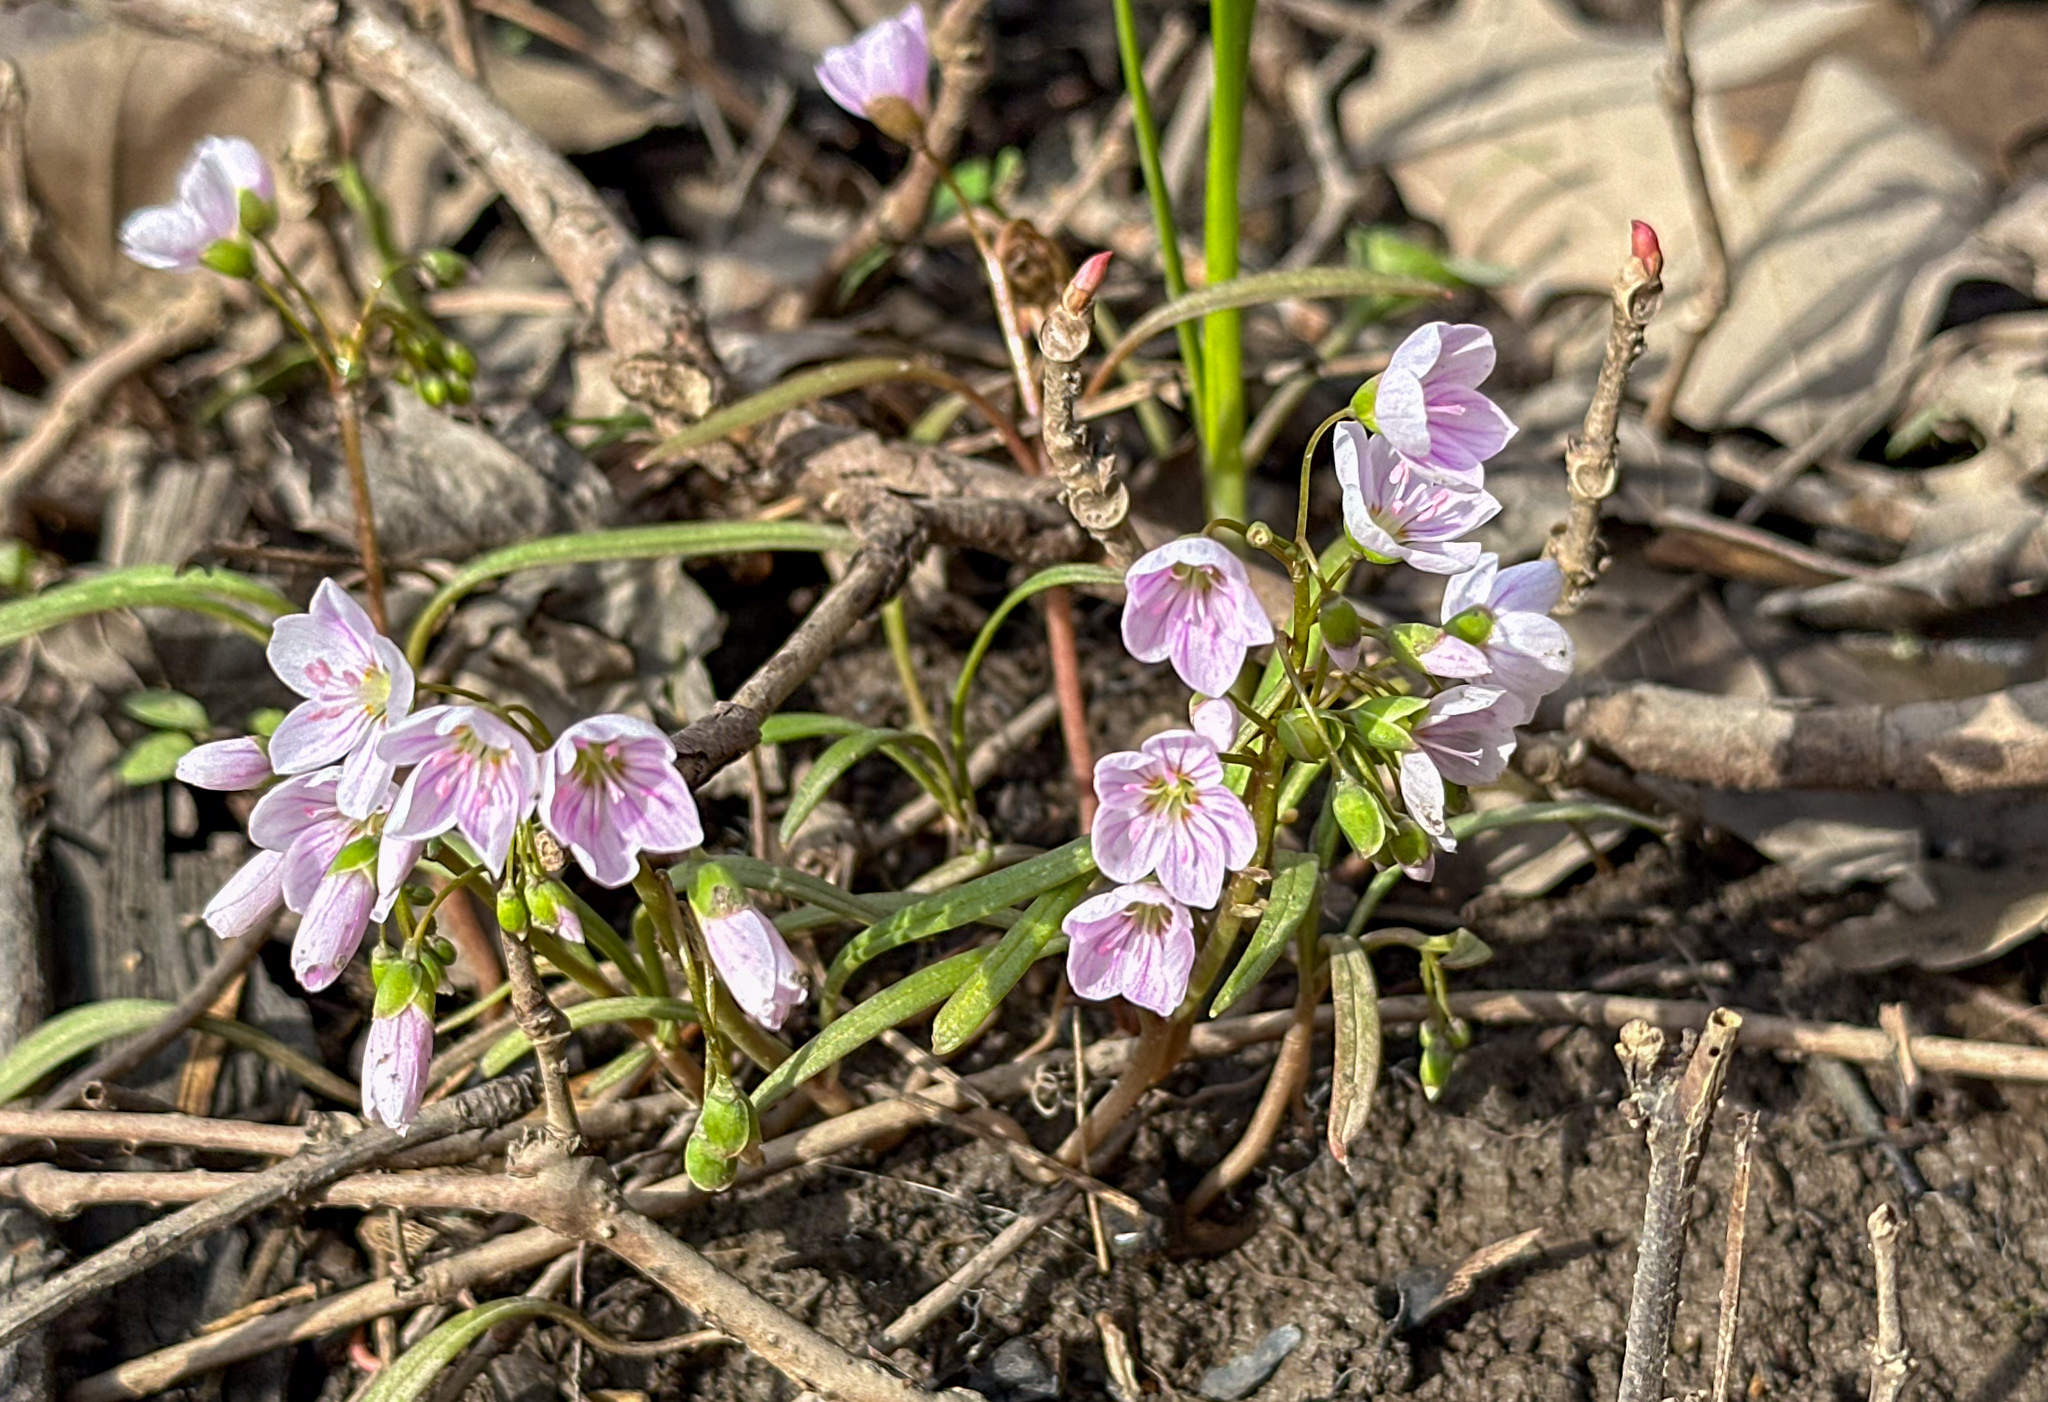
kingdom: Plantae
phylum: Tracheophyta
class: Magnoliopsida
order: Caryophyllales
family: Montiaceae
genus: Claytonia
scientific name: Claytonia virginica
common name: Virginia springbeauty
